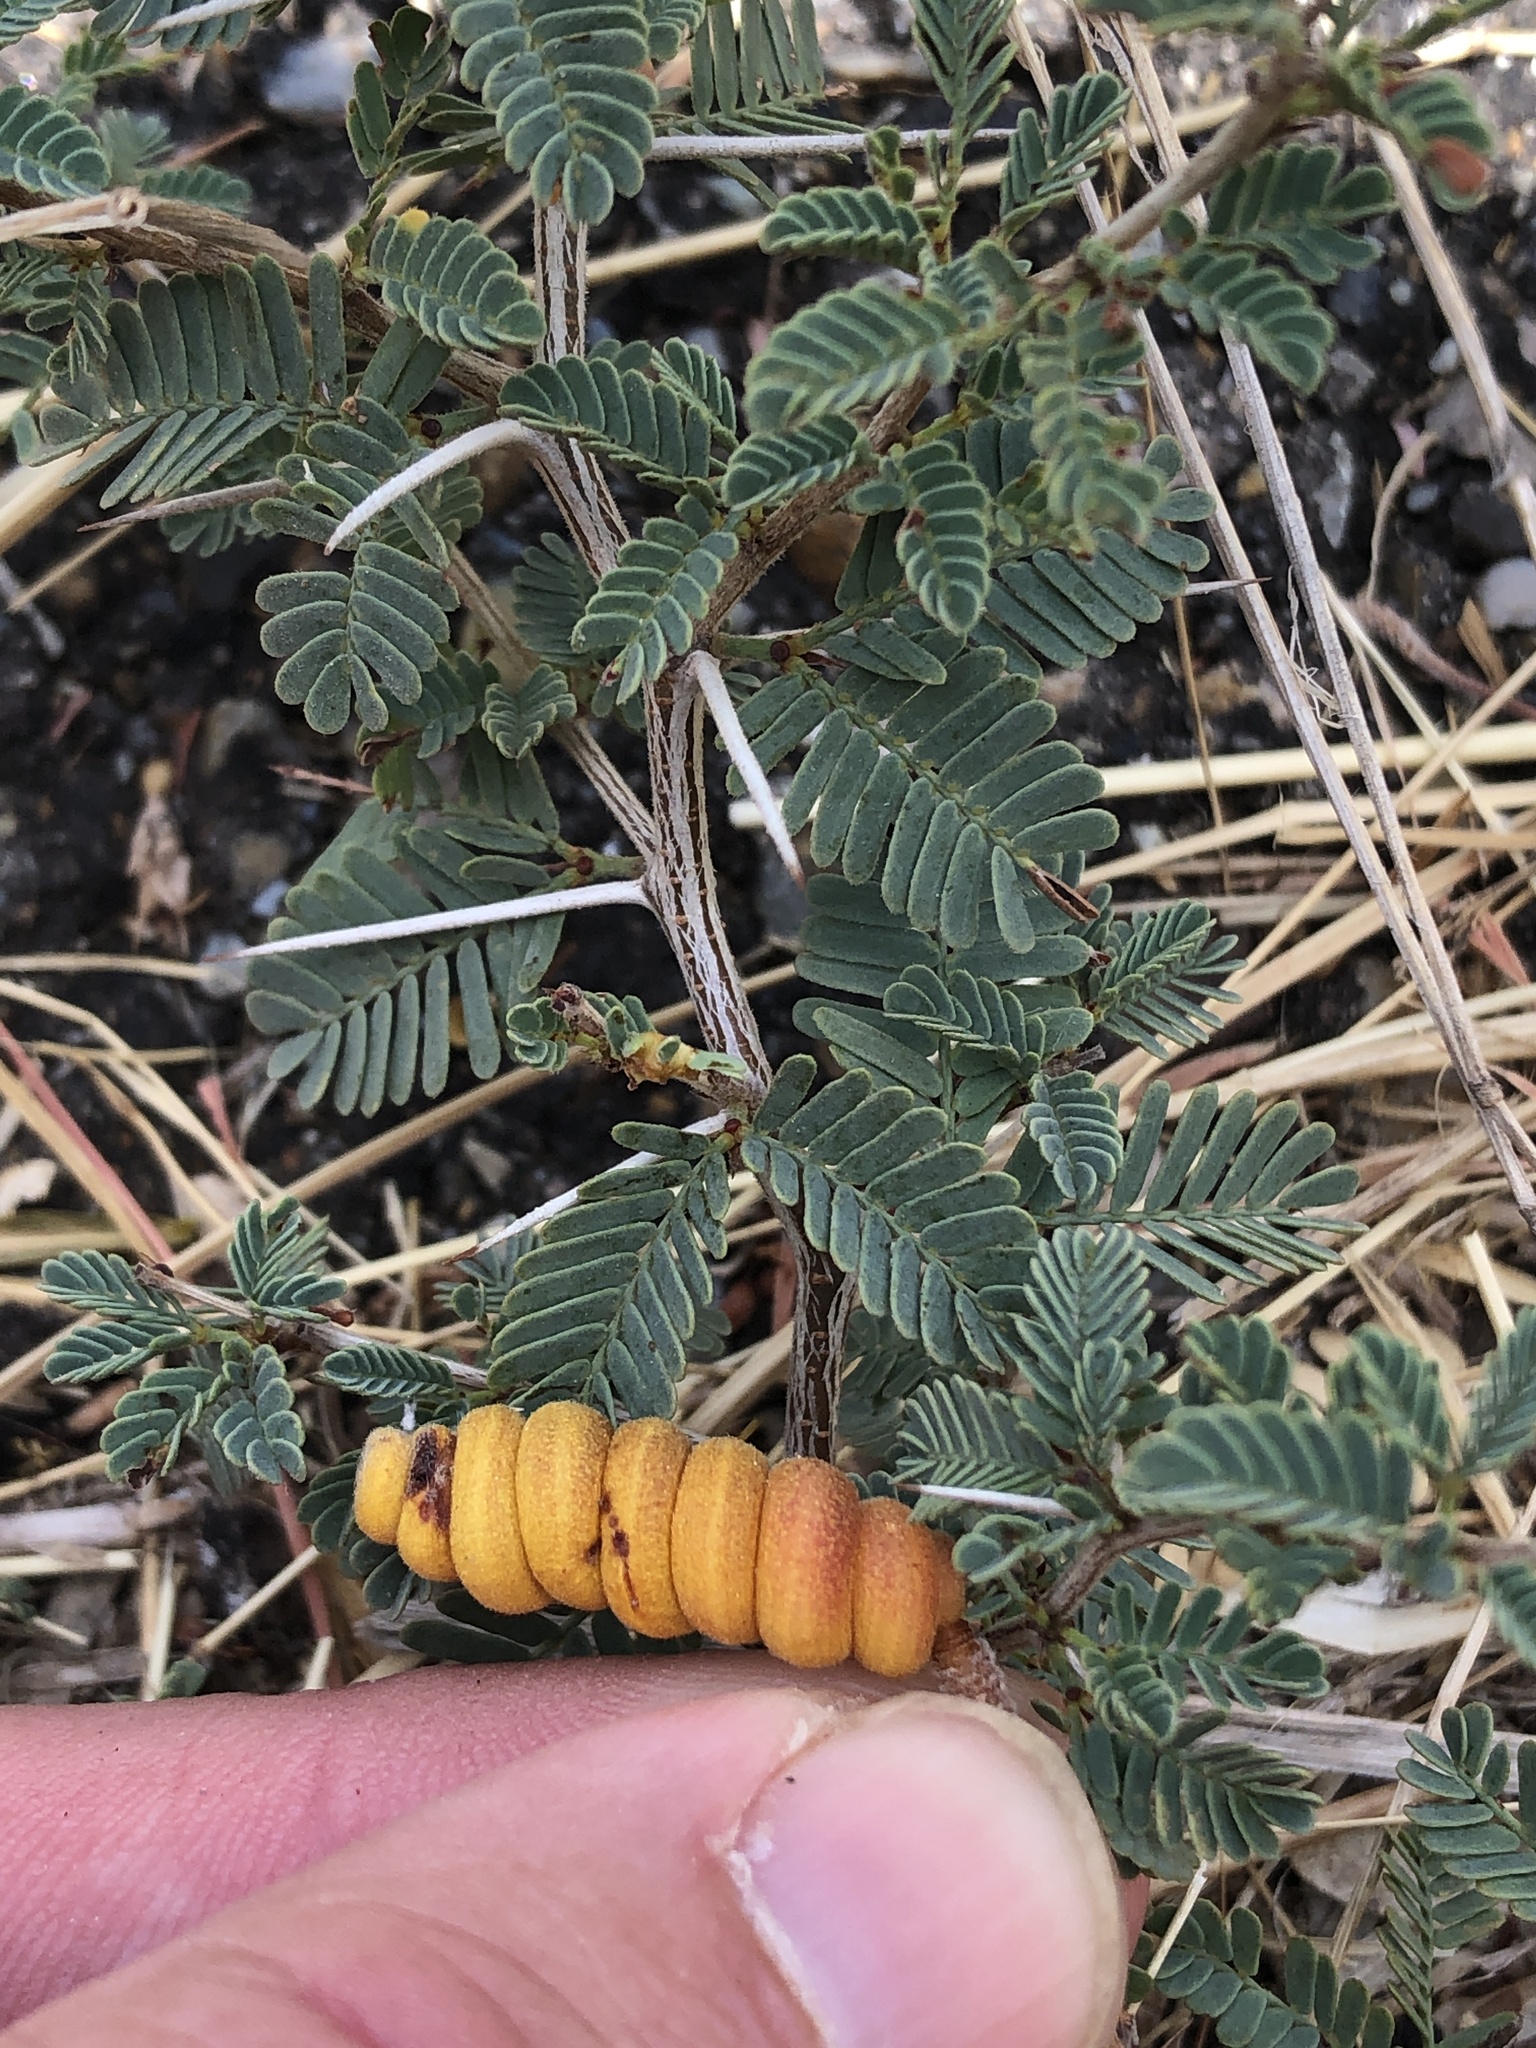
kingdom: Plantae
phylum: Tracheophyta
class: Magnoliopsida
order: Fabales
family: Fabaceae
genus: Prosopis
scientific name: Prosopis cinerascens
